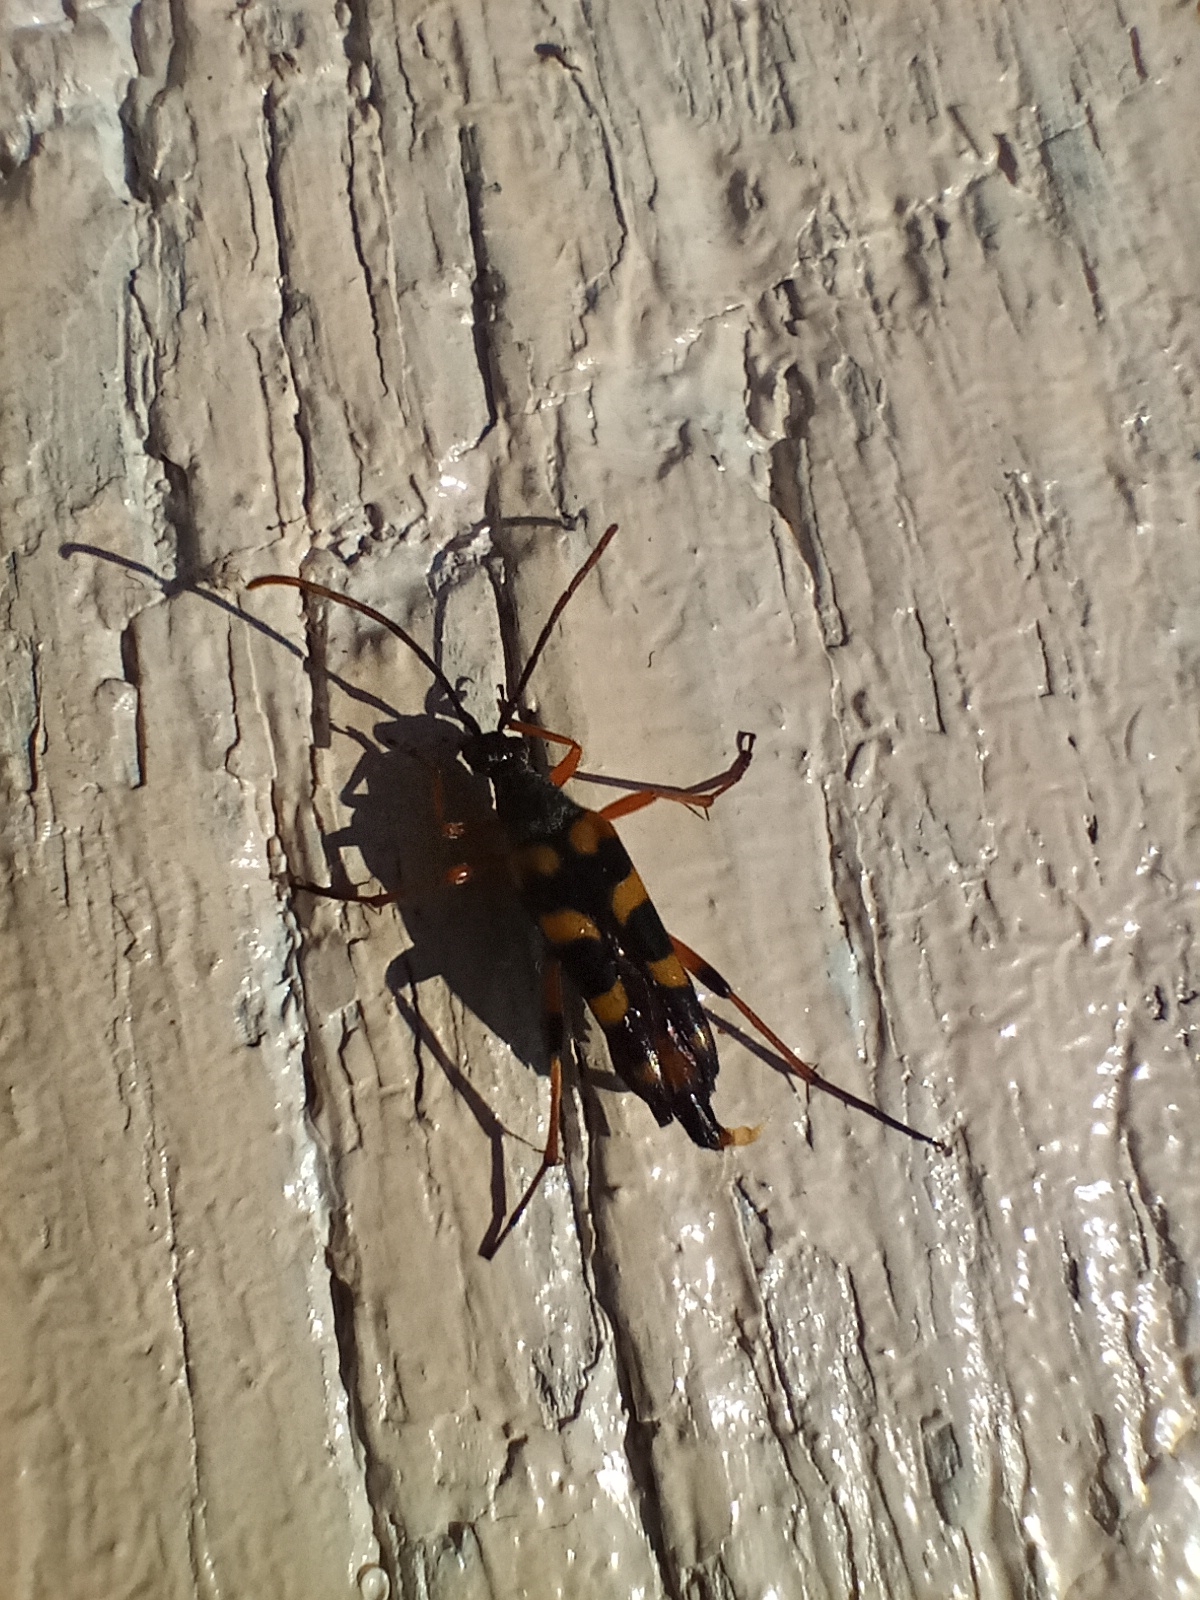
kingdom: Animalia
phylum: Arthropoda
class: Insecta
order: Coleoptera
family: Cerambycidae
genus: Strangalia
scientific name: Strangalia attenuata
